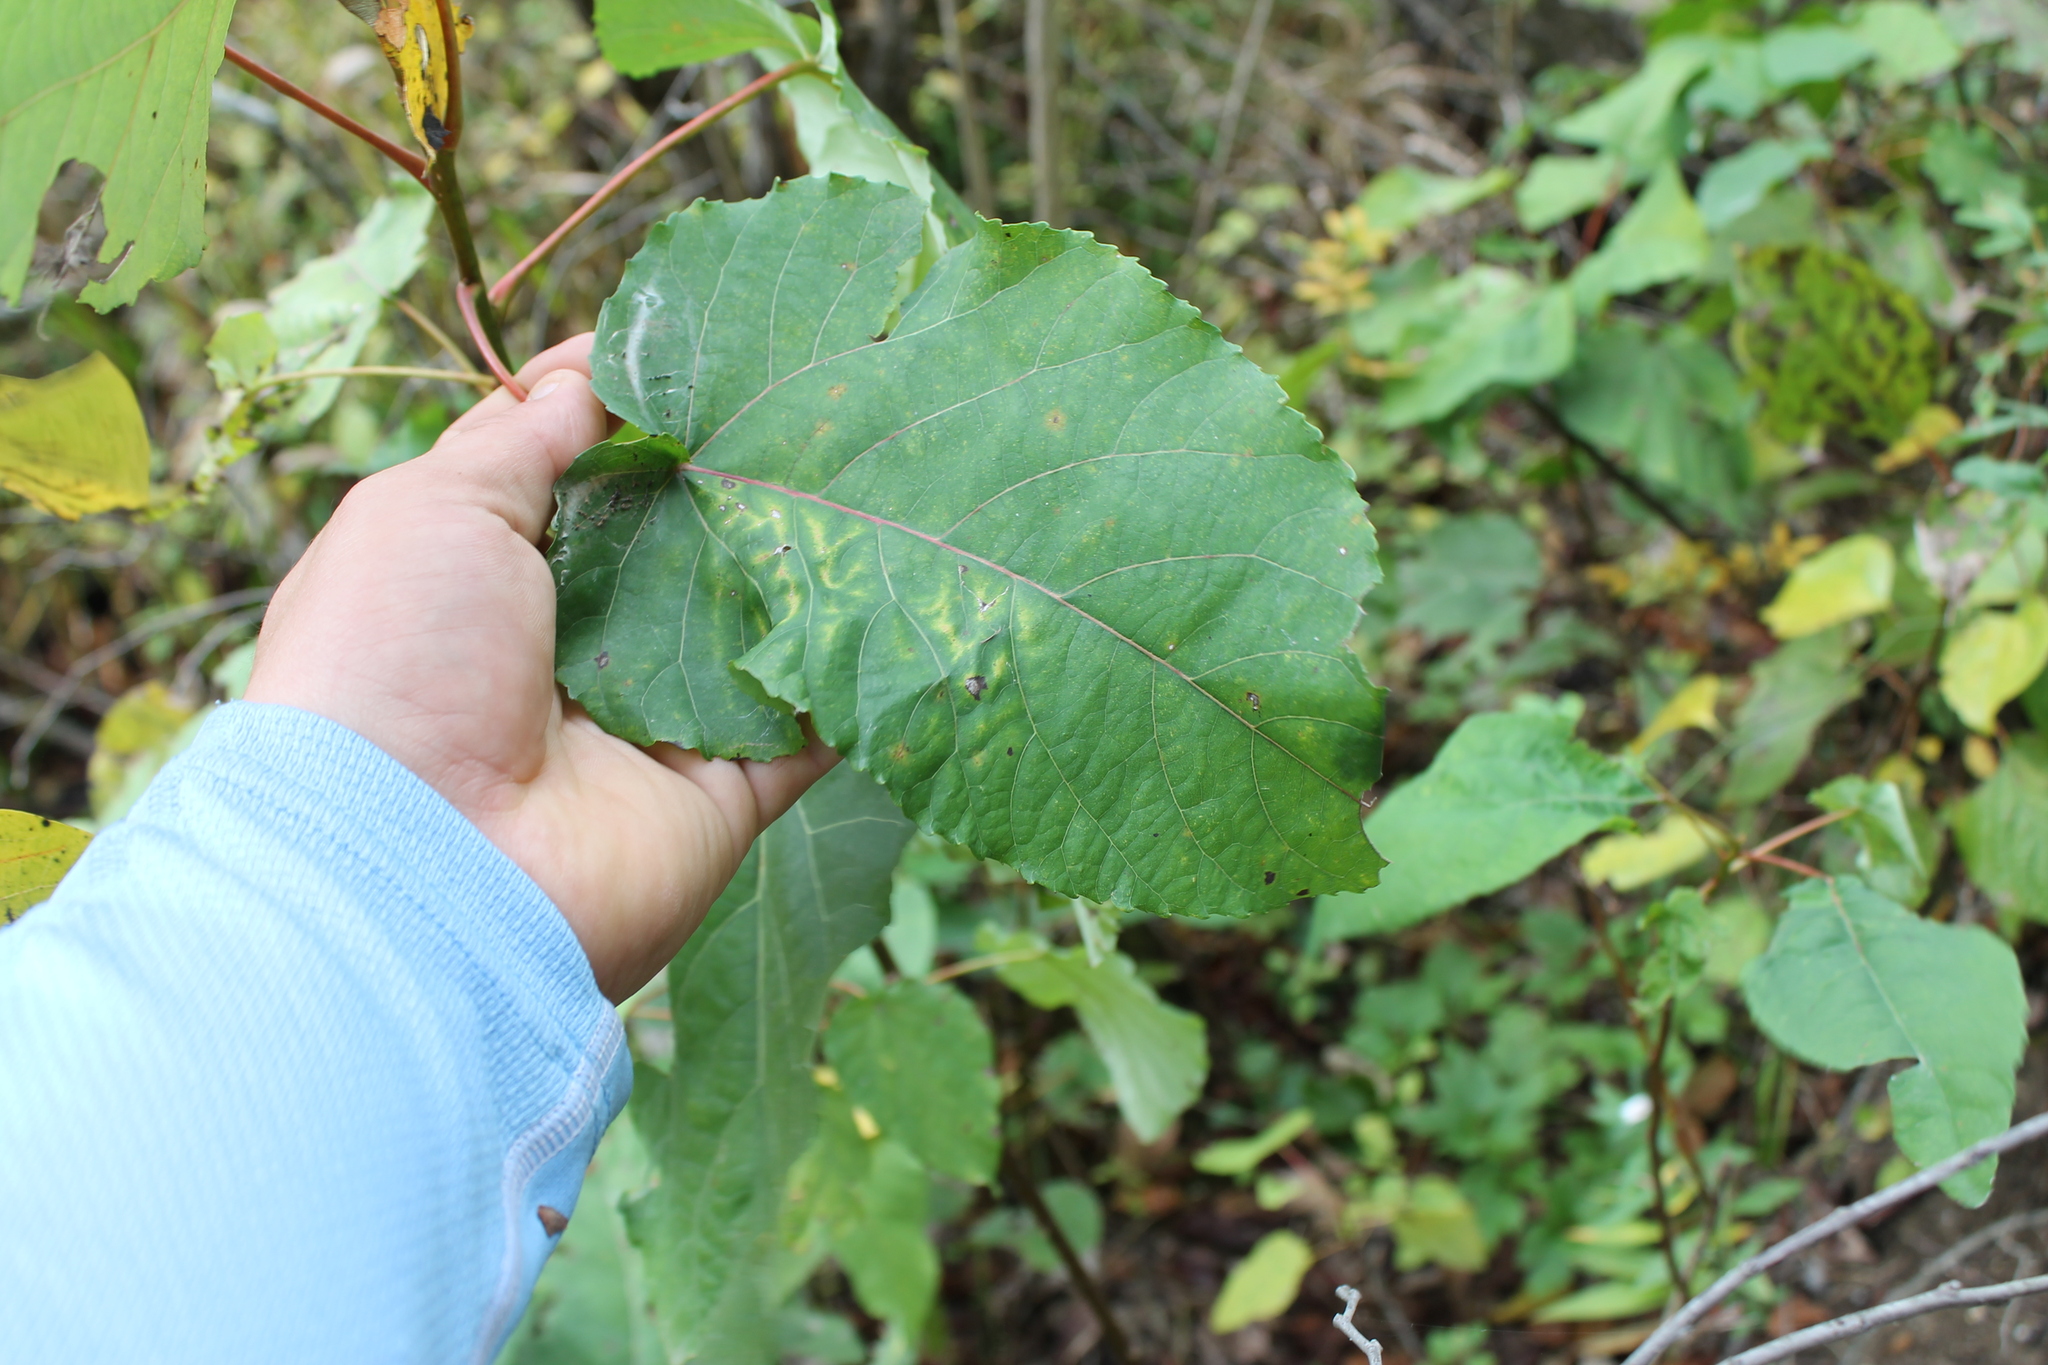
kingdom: Plantae
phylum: Tracheophyta
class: Magnoliopsida
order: Malpighiales
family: Salicaceae
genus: Populus
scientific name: Populus heterophylla
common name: Downy poplar
